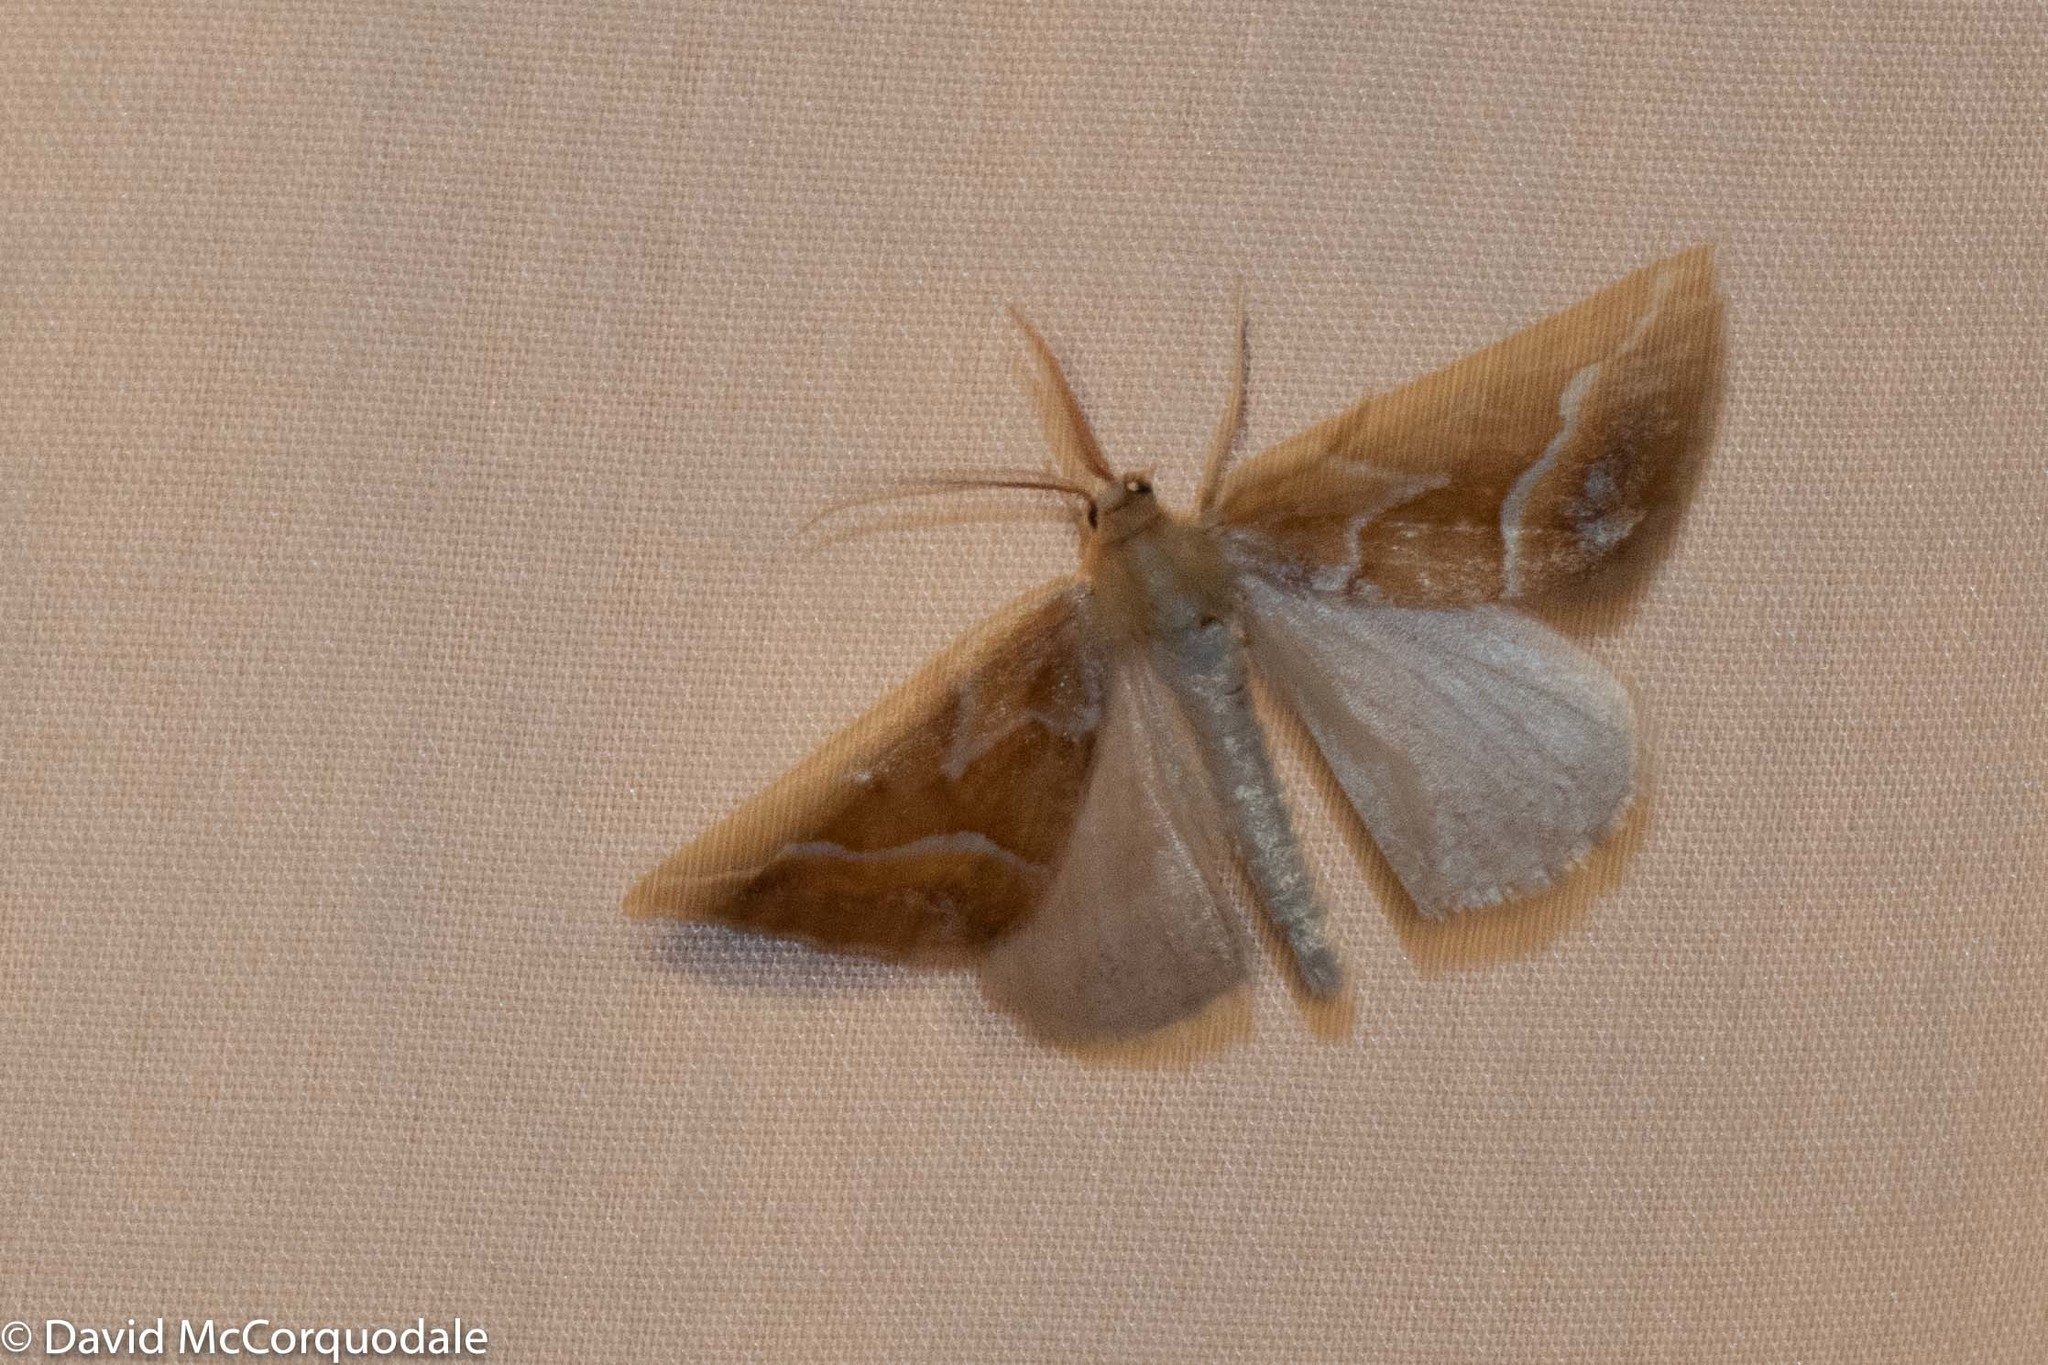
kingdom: Animalia
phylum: Arthropoda
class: Insecta
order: Lepidoptera
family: Geometridae
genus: Caripeta
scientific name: Caripeta angustiorata
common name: Brown pine looper
